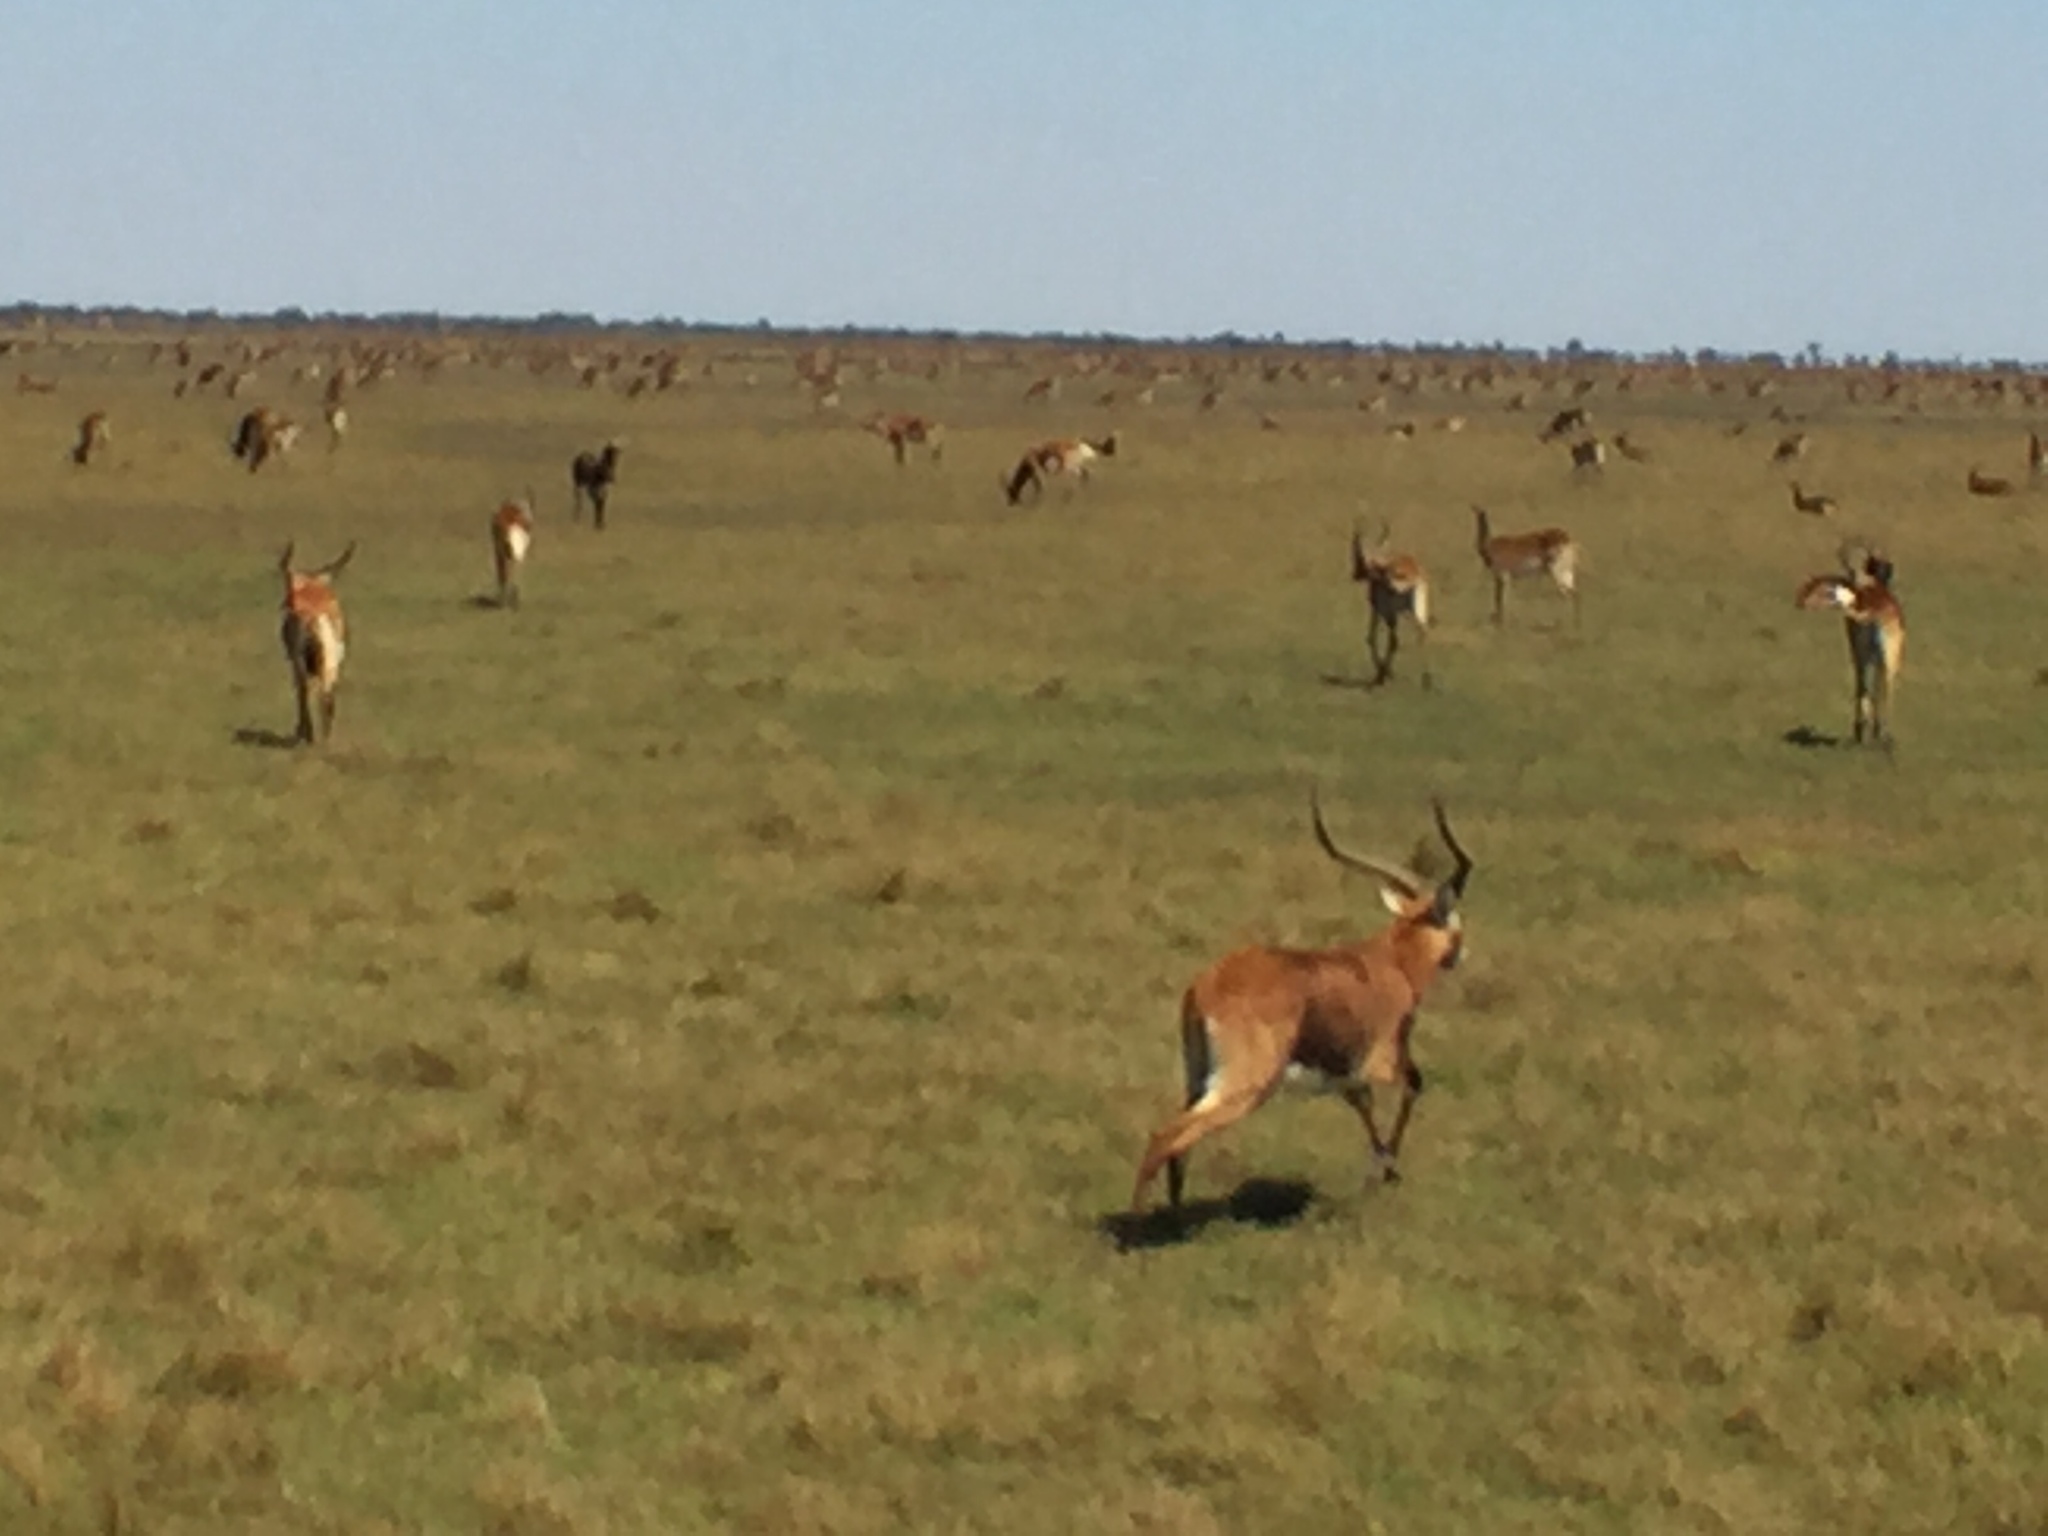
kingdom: Animalia
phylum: Chordata
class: Mammalia
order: Artiodactyla
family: Bovidae
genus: Kobus
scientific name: Kobus leche
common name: Lechwe
